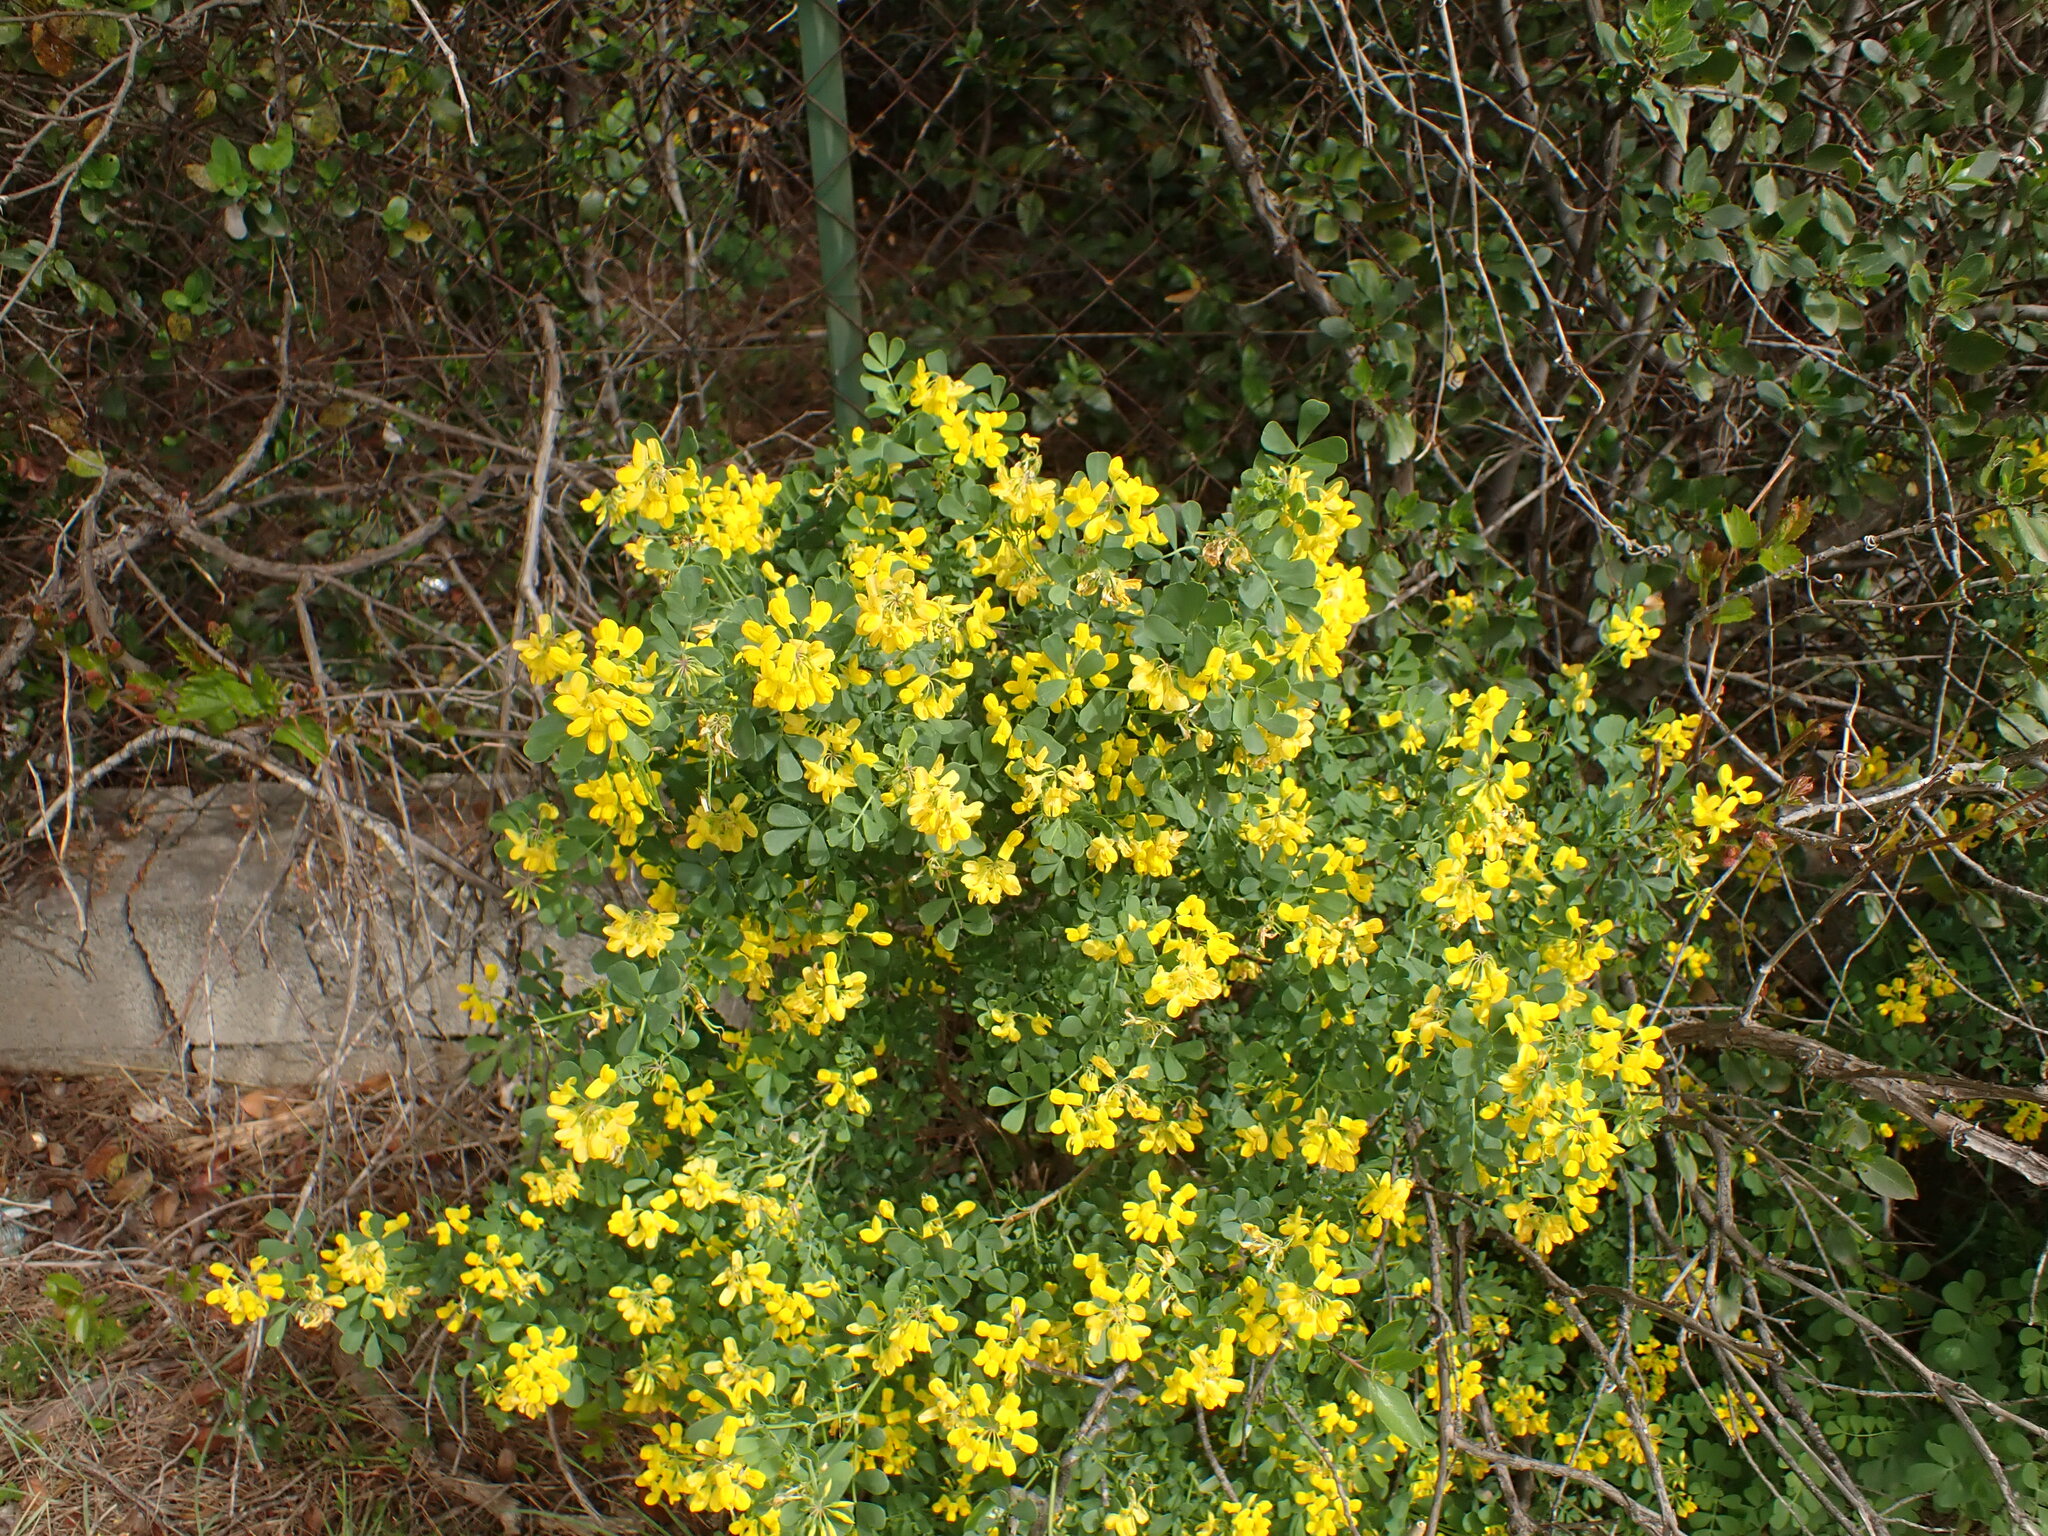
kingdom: Plantae
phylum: Tracheophyta
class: Magnoliopsida
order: Fabales
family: Fabaceae
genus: Coronilla
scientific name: Coronilla valentina
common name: Shrubby scorpion-vetch
